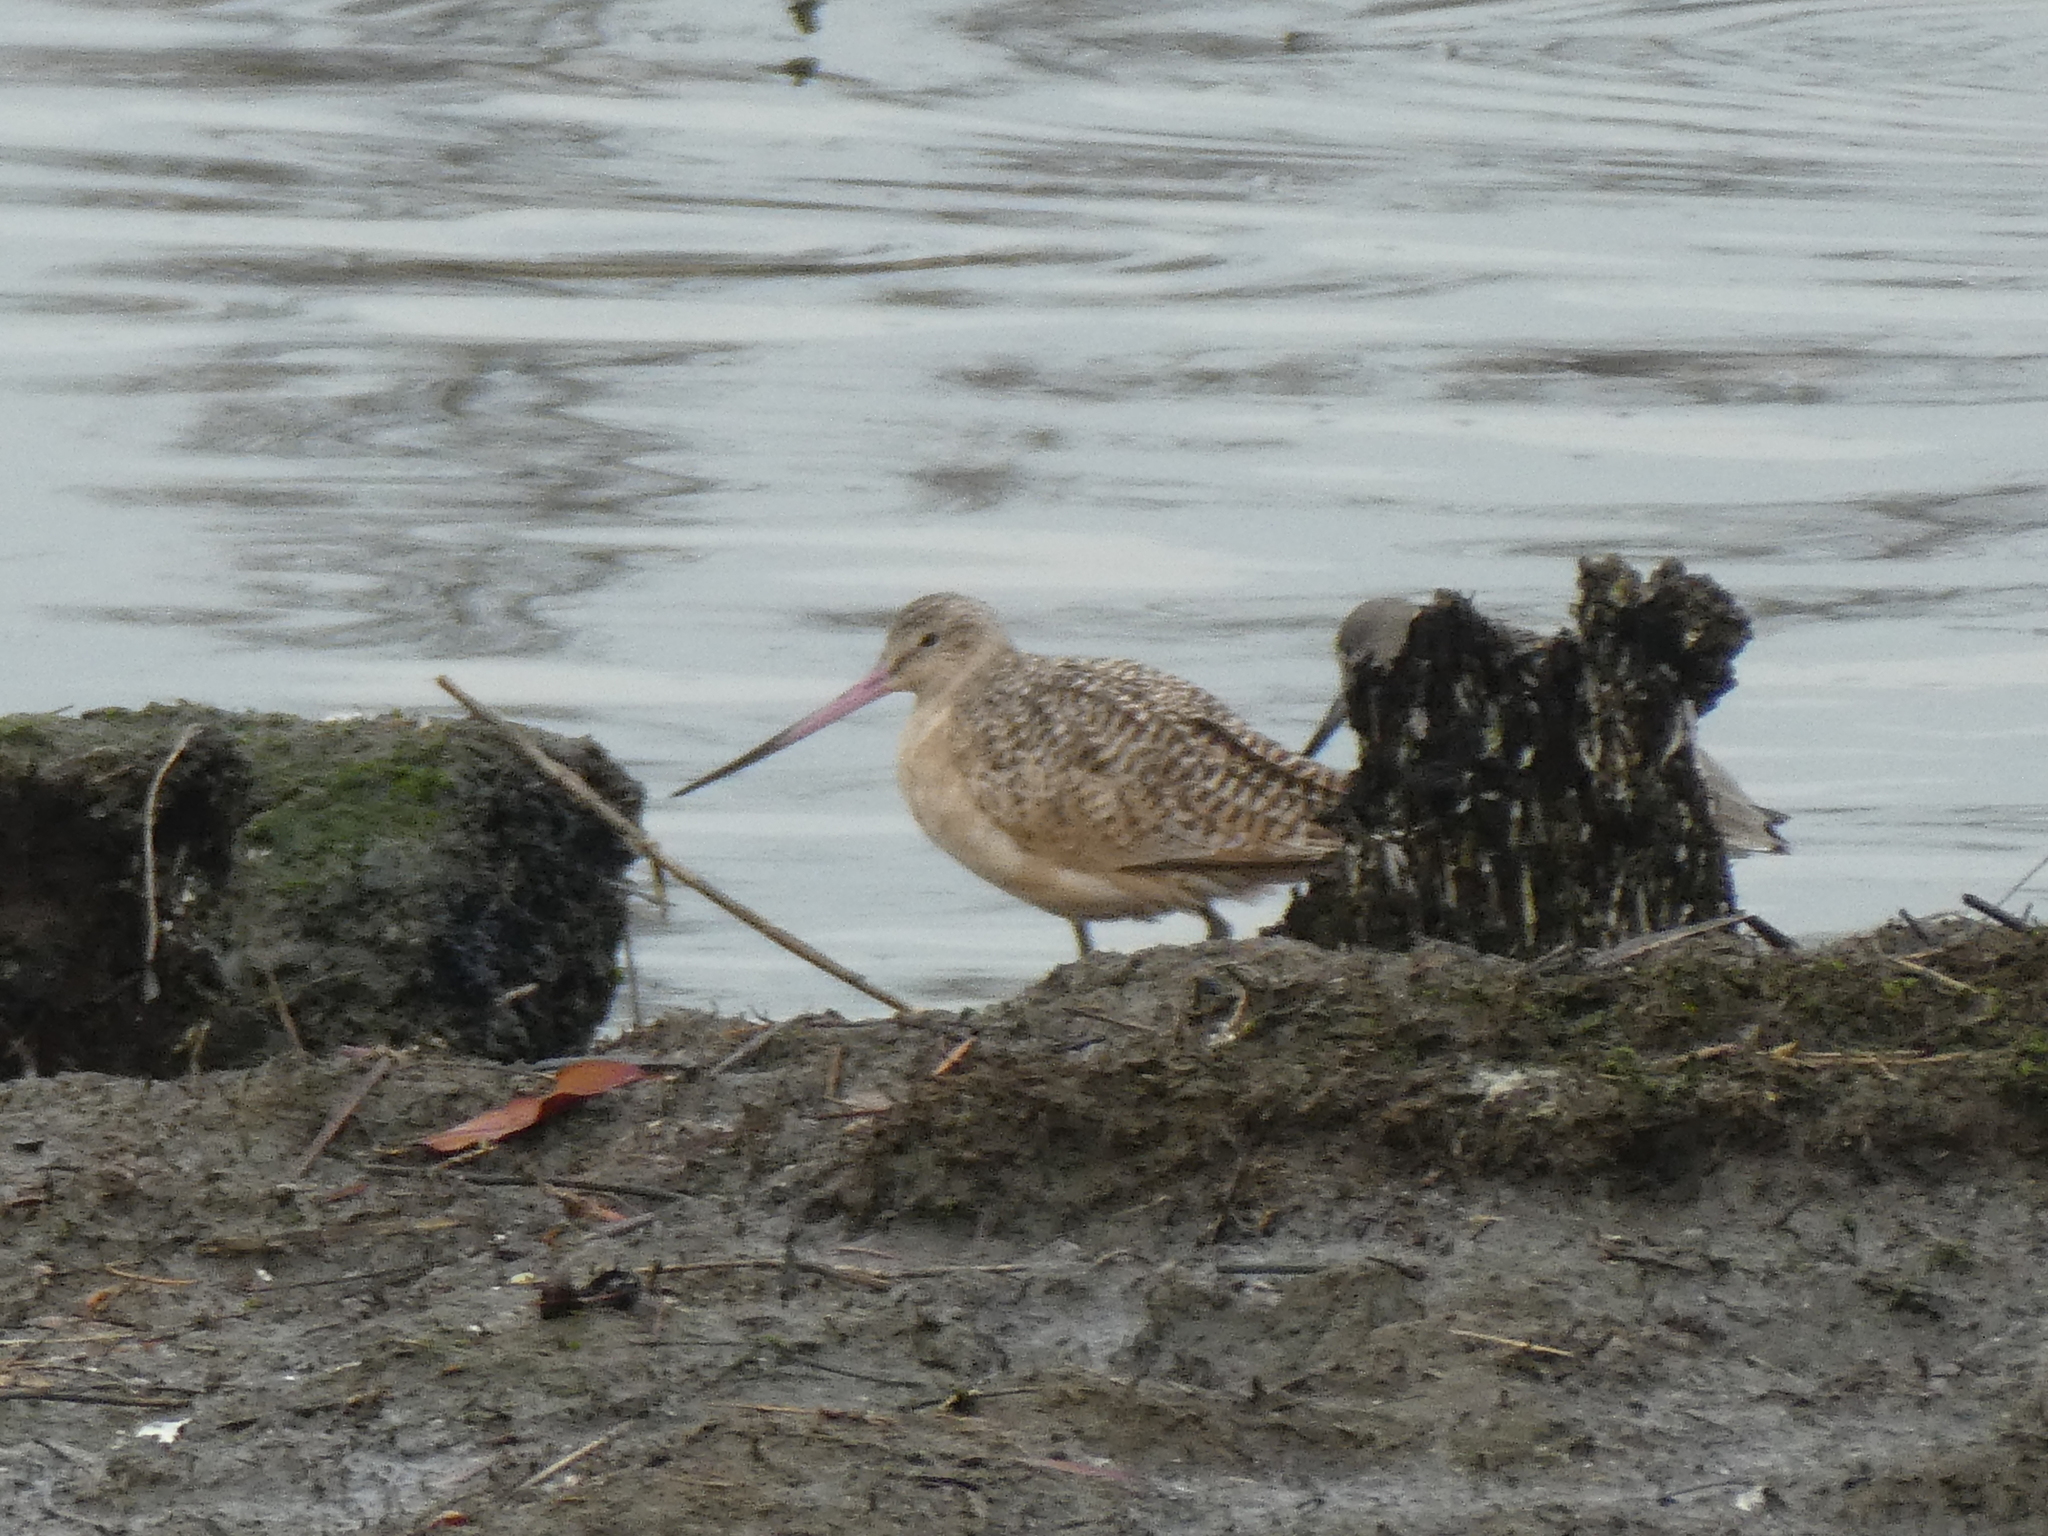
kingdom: Animalia
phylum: Chordata
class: Aves
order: Charadriiformes
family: Scolopacidae
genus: Limosa
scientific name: Limosa fedoa
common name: Marbled godwit
